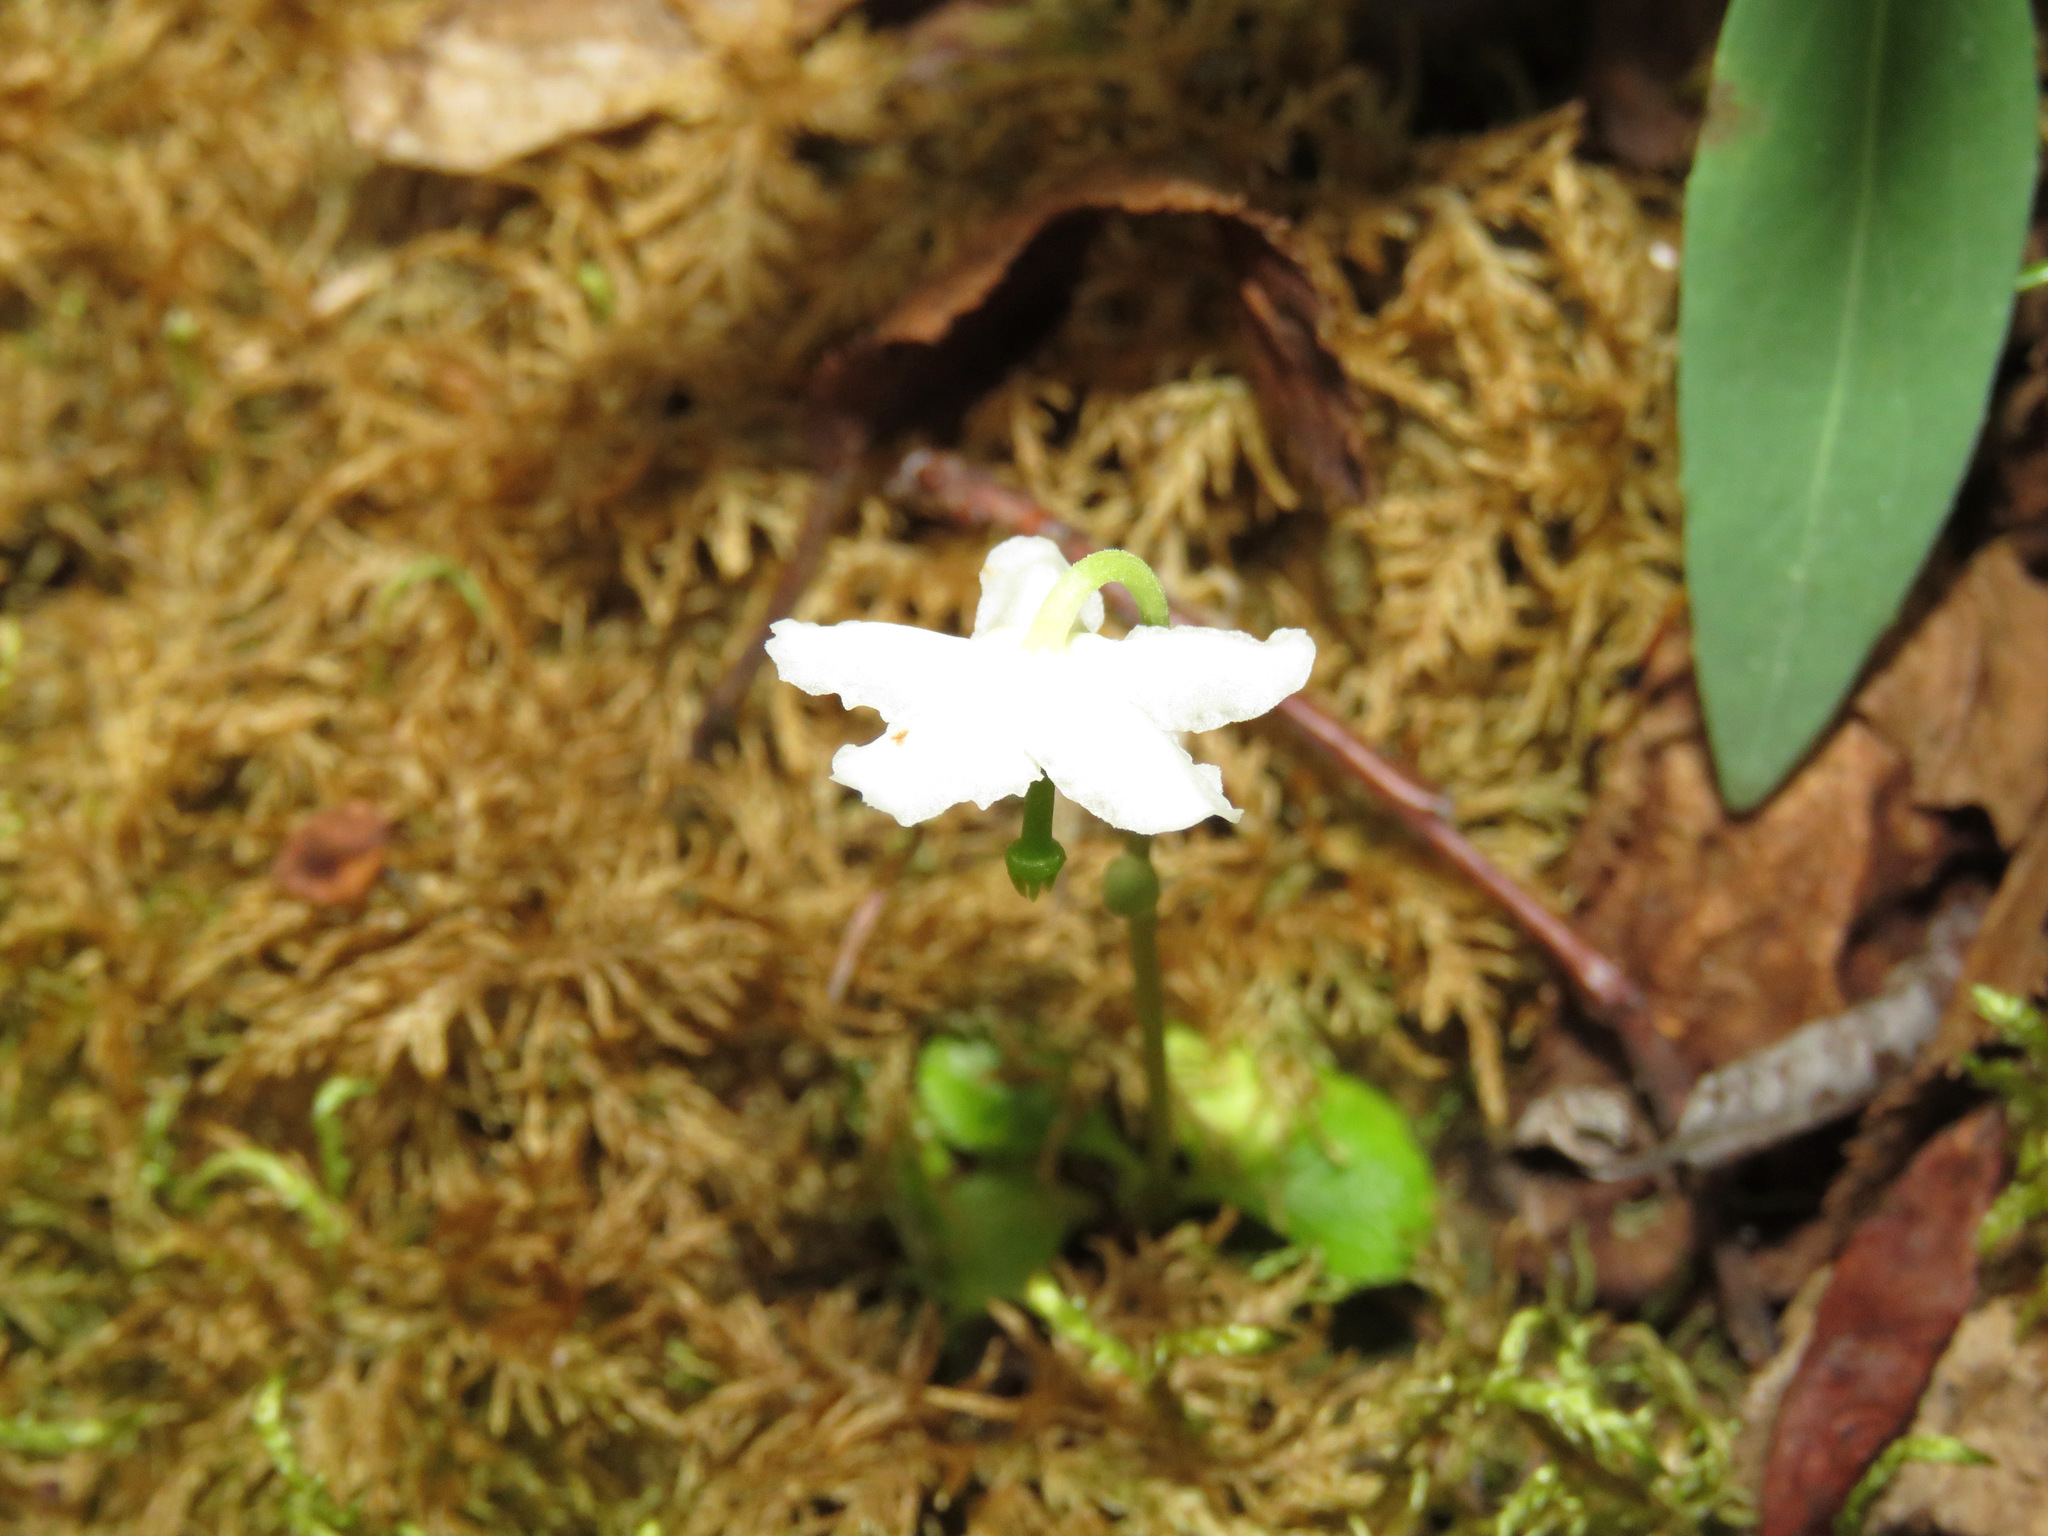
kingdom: Plantae
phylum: Tracheophyta
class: Magnoliopsida
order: Ericales
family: Ericaceae
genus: Moneses
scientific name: Moneses uniflora
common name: One-flowered wintergreen
